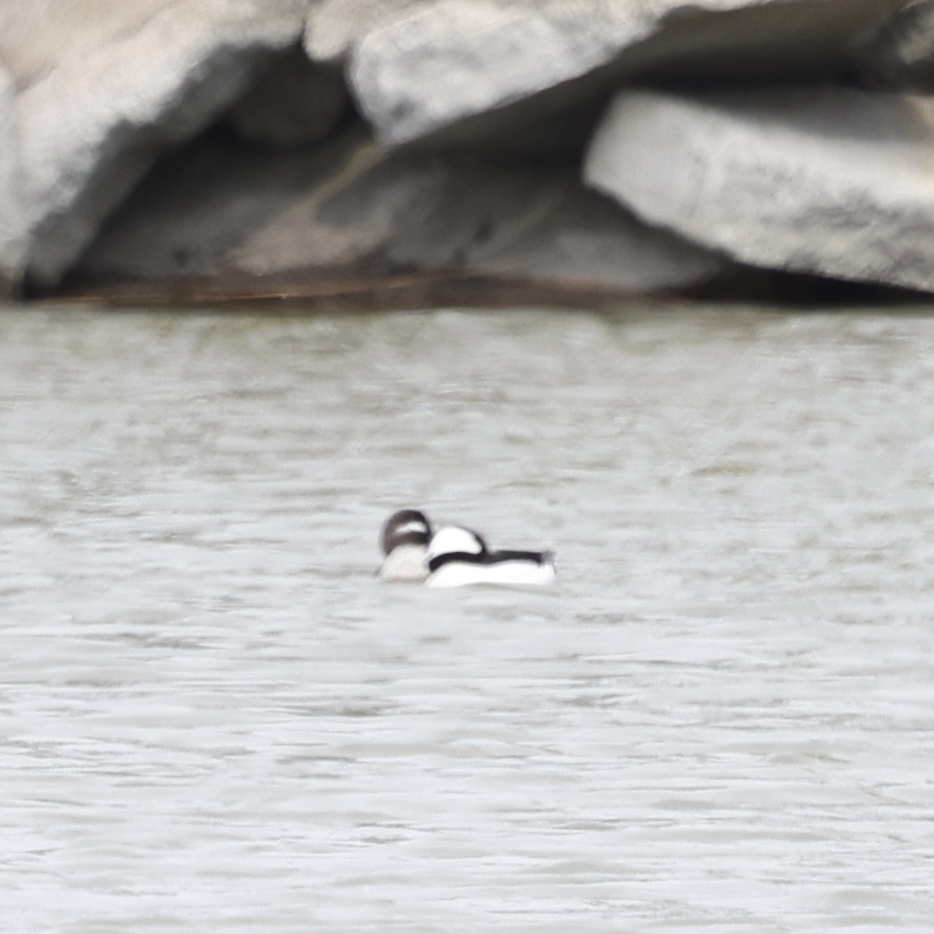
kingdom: Animalia
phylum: Chordata
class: Aves
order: Anseriformes
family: Anatidae
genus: Bucephala
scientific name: Bucephala albeola
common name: Bufflehead
